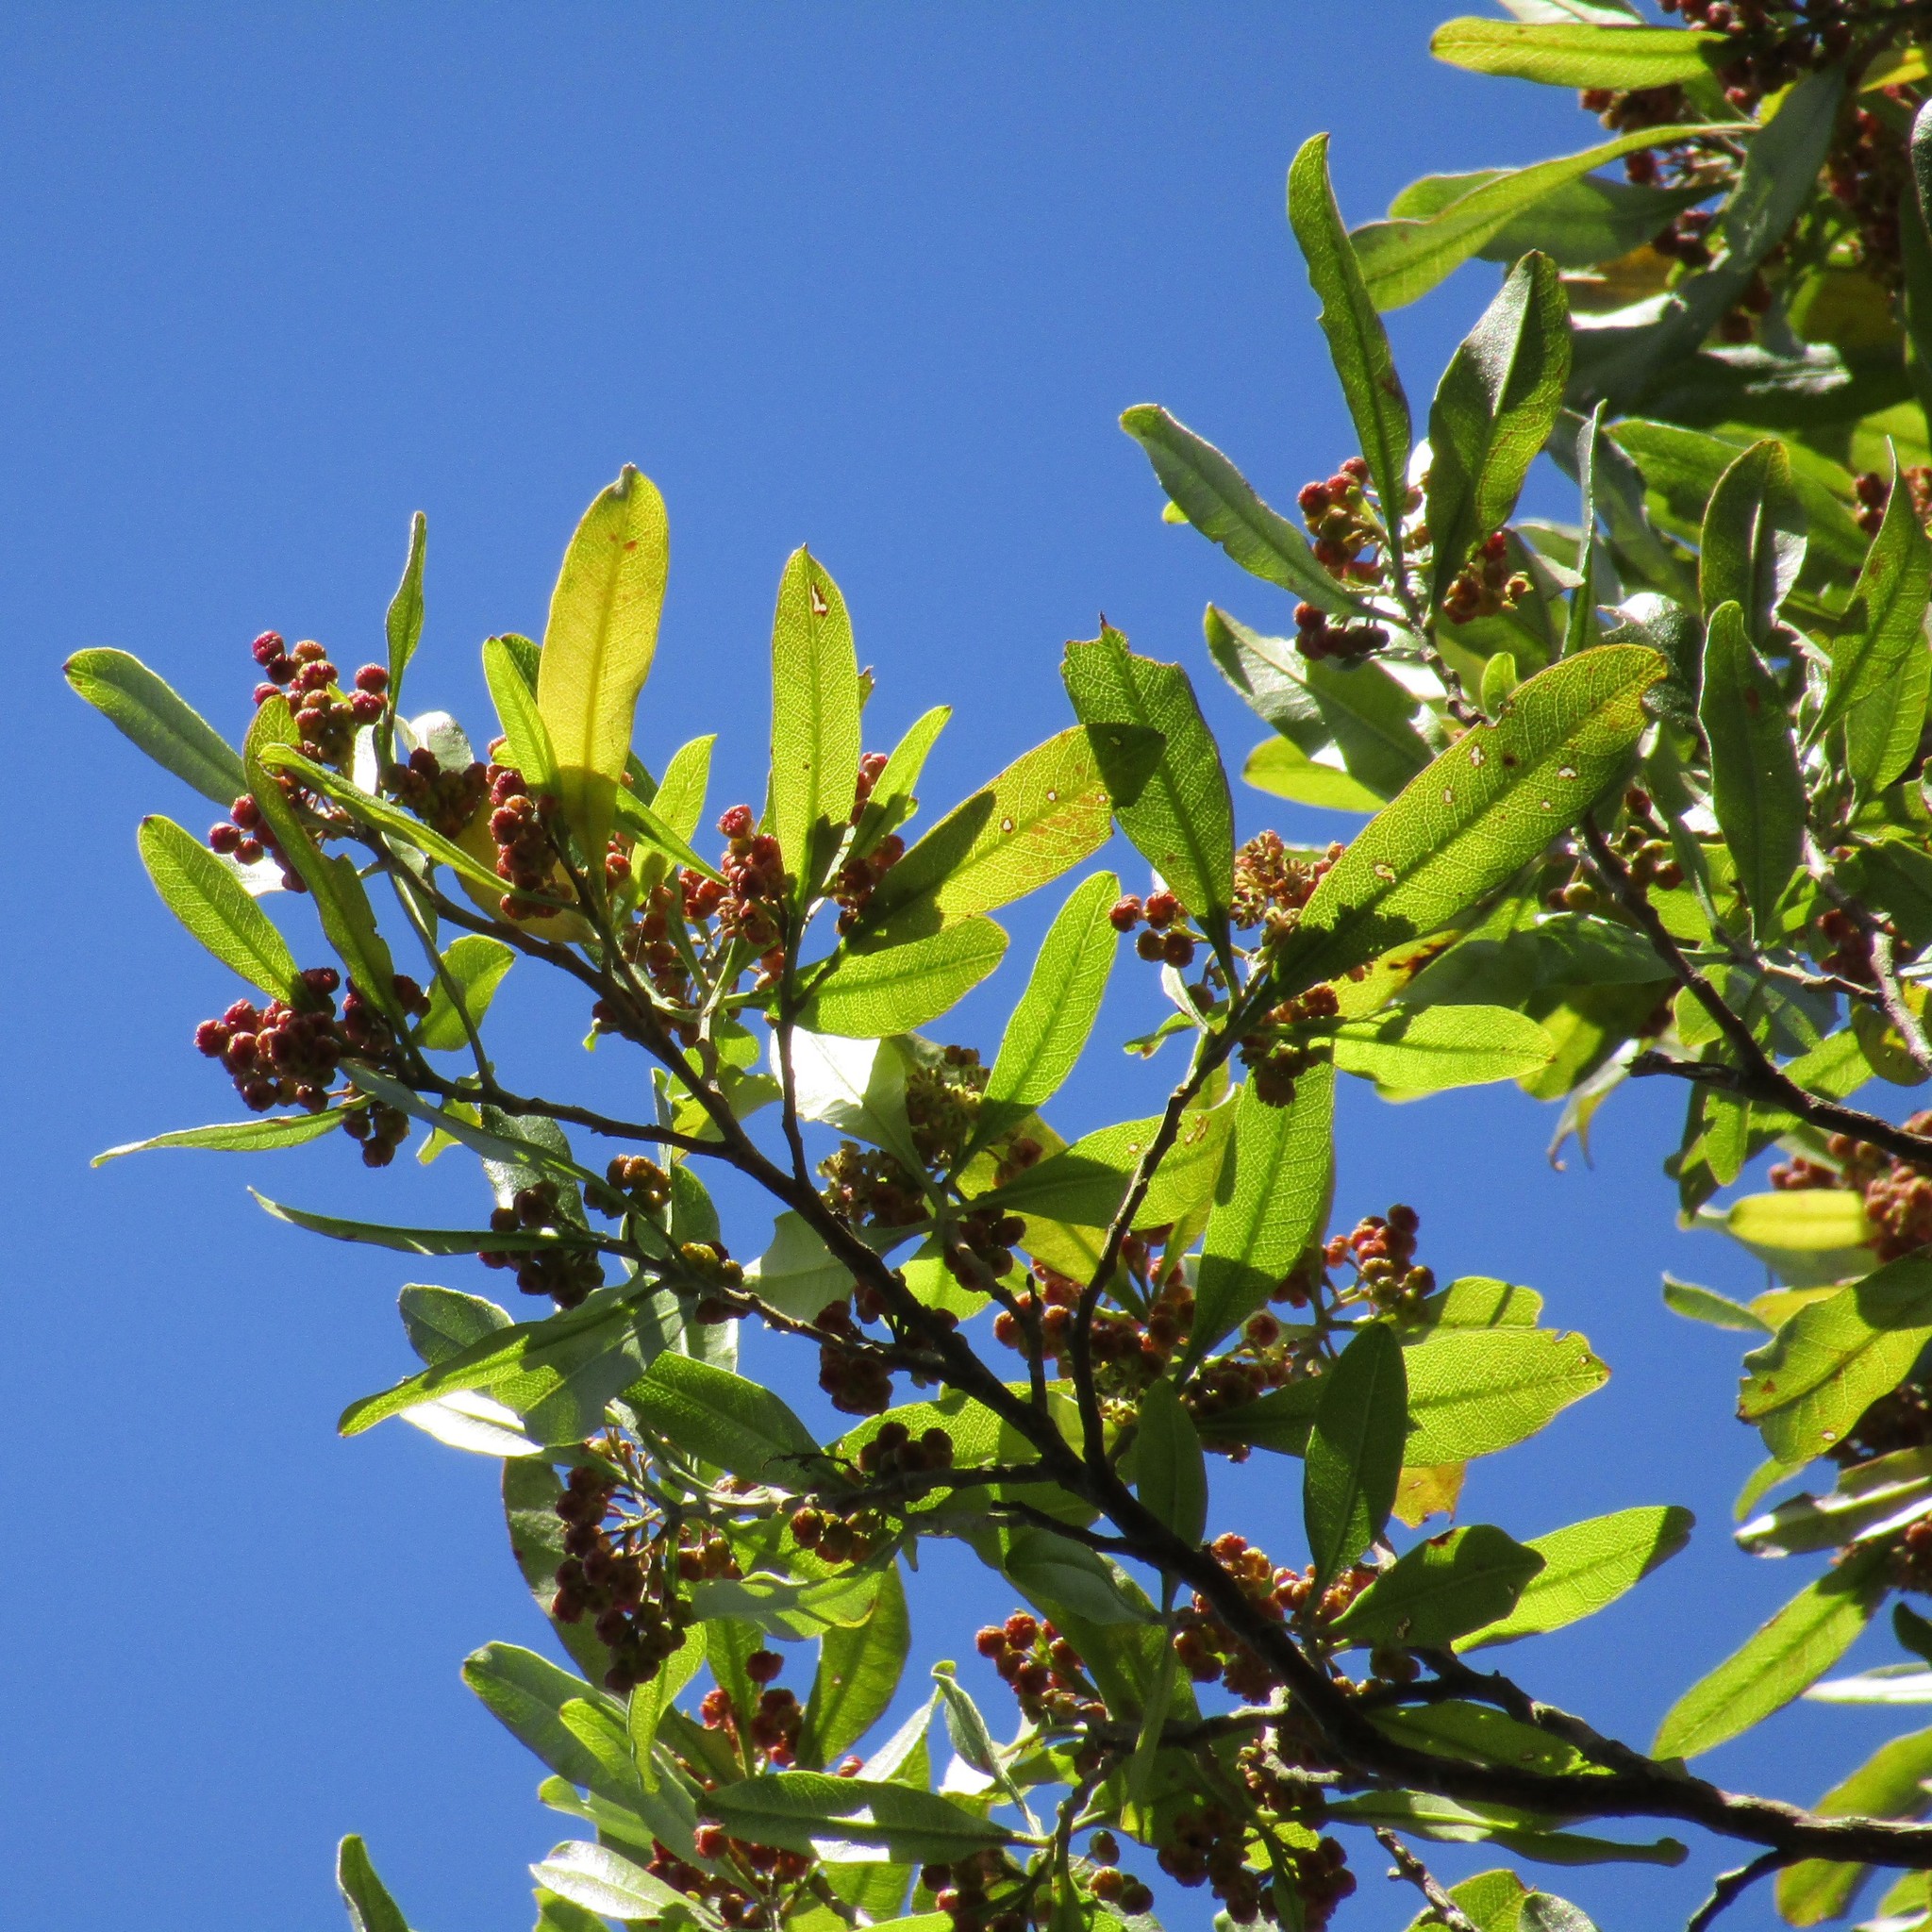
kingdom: Plantae
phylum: Tracheophyta
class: Magnoliopsida
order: Sapindales
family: Sapindaceae
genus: Dodonaea
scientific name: Dodonaea viscosa
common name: Hopbush
